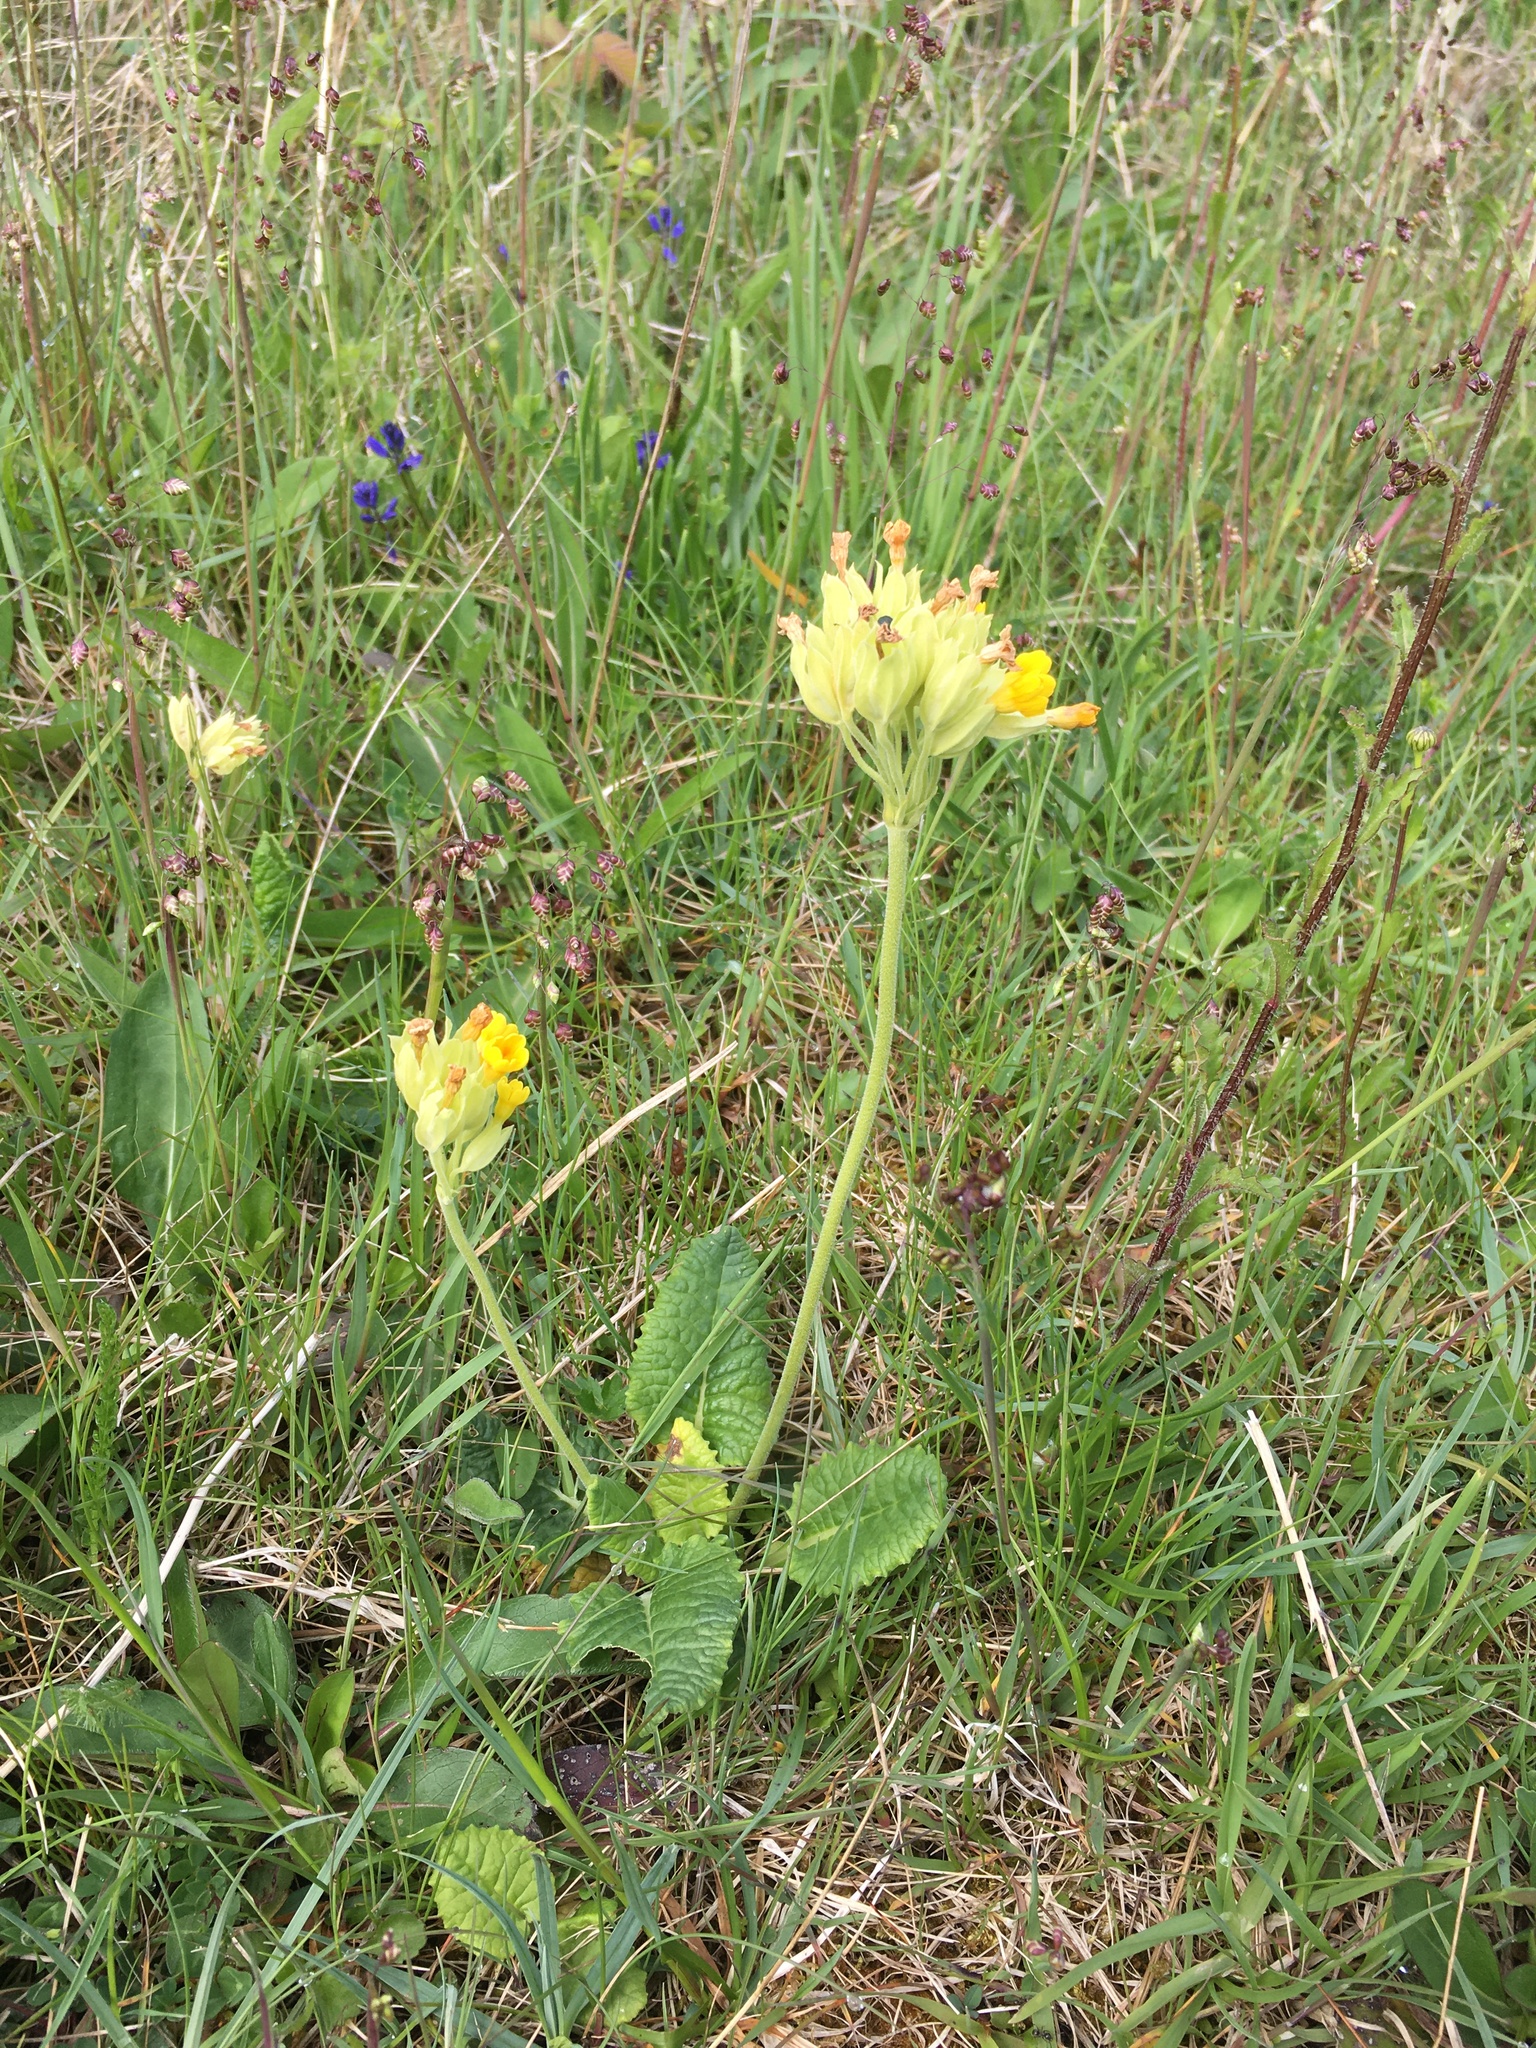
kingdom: Plantae
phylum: Tracheophyta
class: Magnoliopsida
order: Ericales
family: Primulaceae
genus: Primula
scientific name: Primula veris
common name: Cowslip
